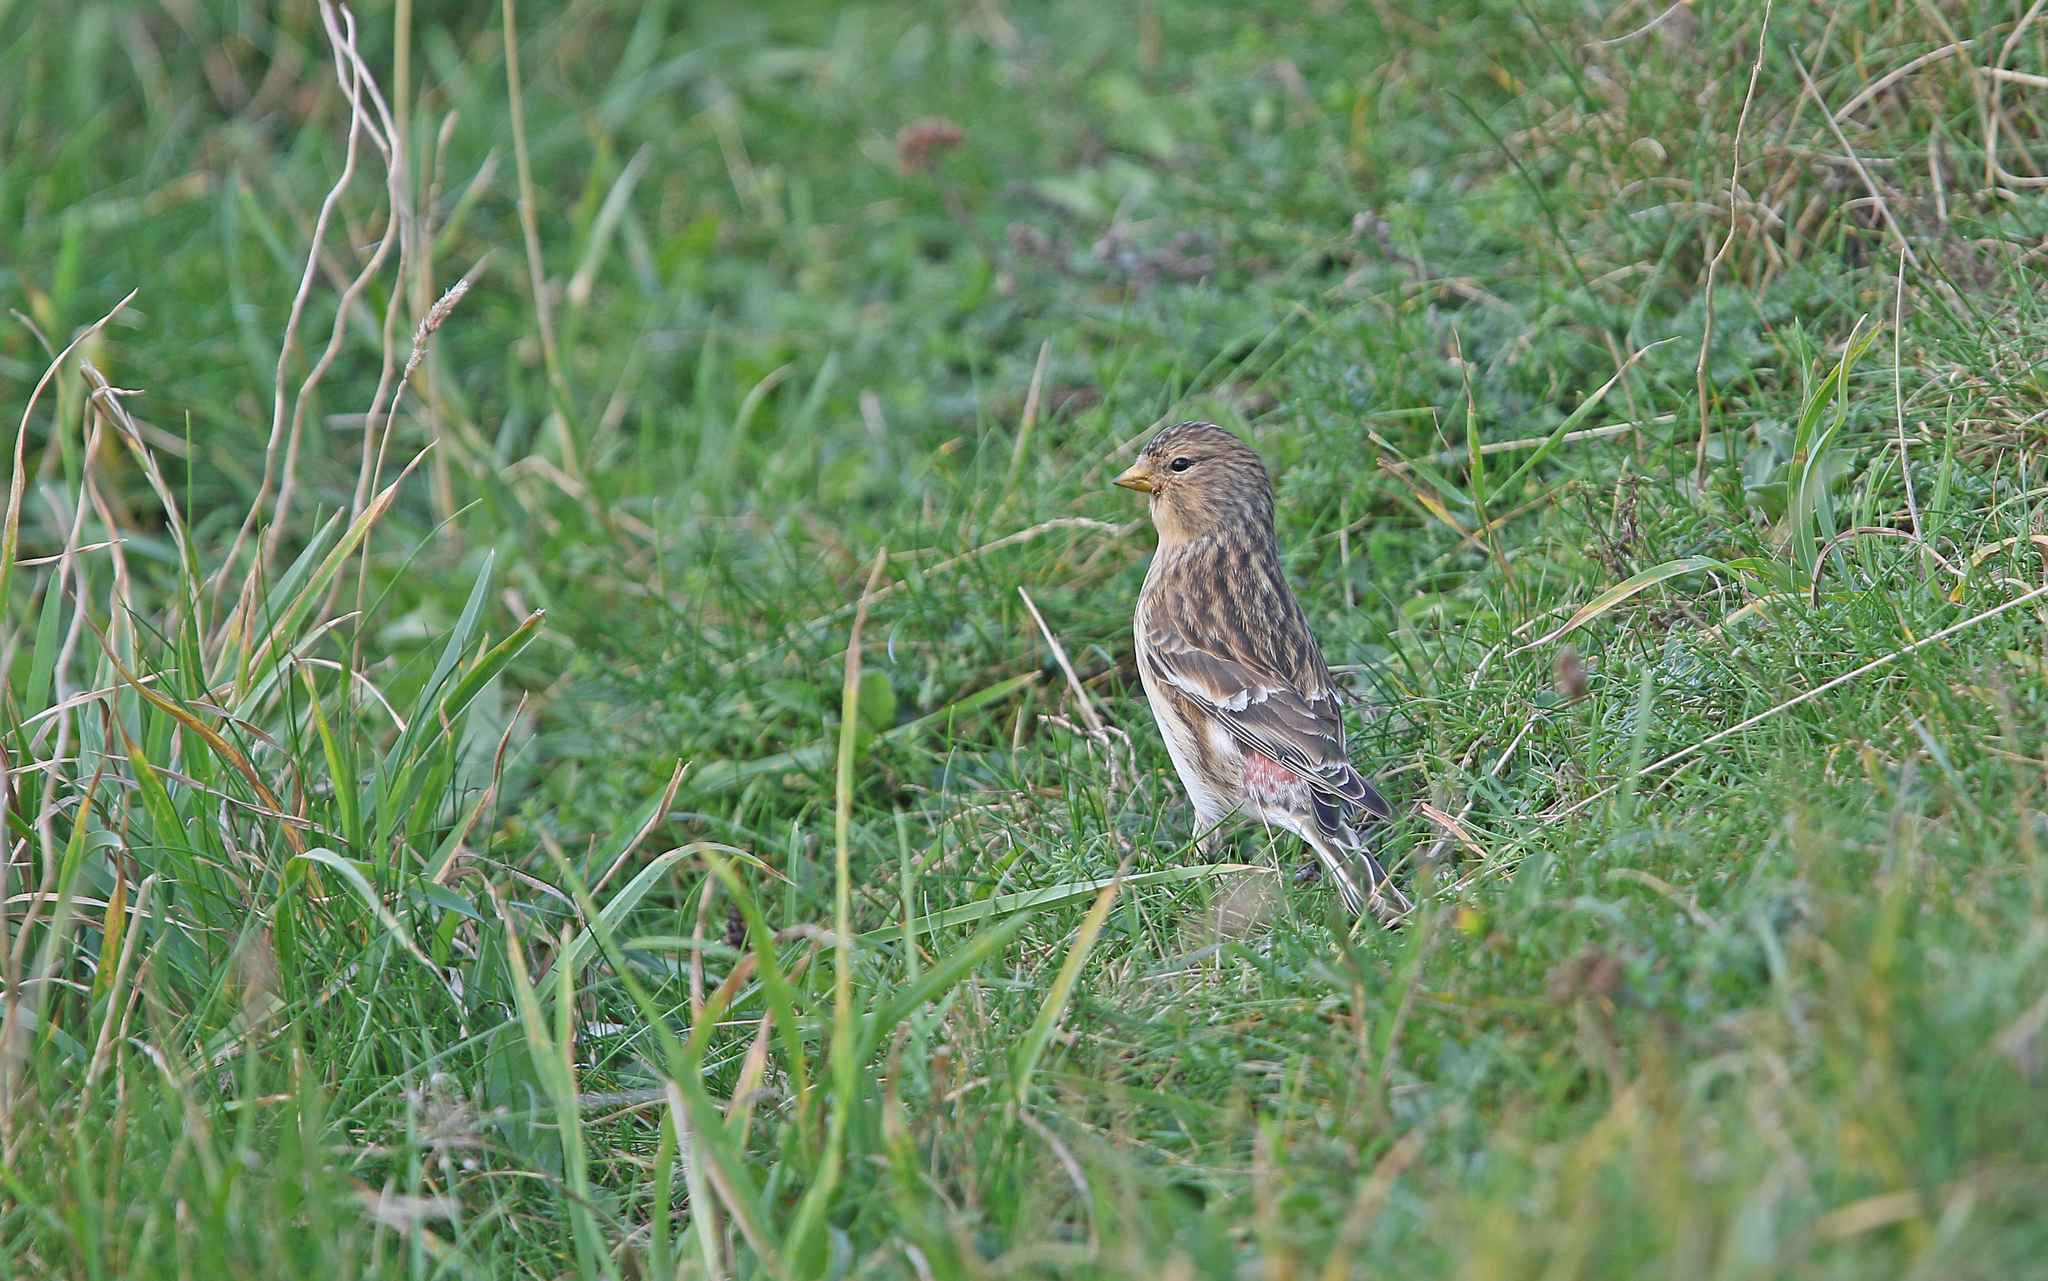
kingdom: Animalia
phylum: Chordata
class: Aves
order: Passeriformes
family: Fringillidae
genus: Linaria
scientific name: Linaria flavirostris
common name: Twite
